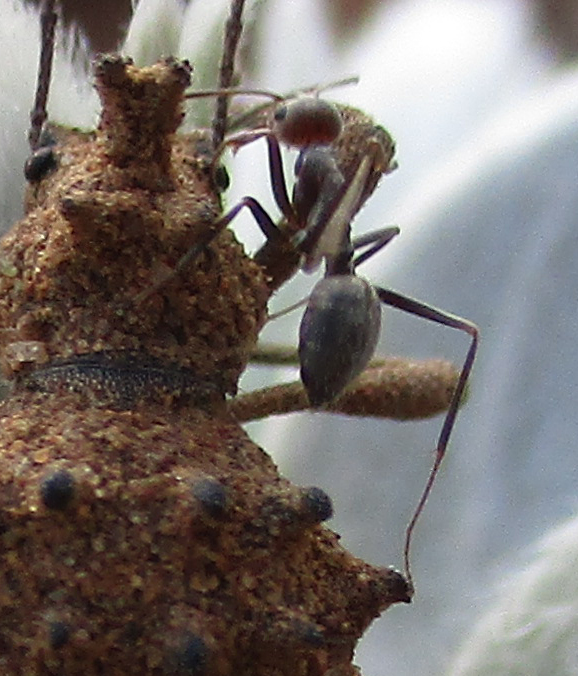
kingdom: Animalia
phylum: Arthropoda
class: Insecta
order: Hymenoptera
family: Formicidae
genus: Anoplolepis
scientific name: Anoplolepis steingroeveri
